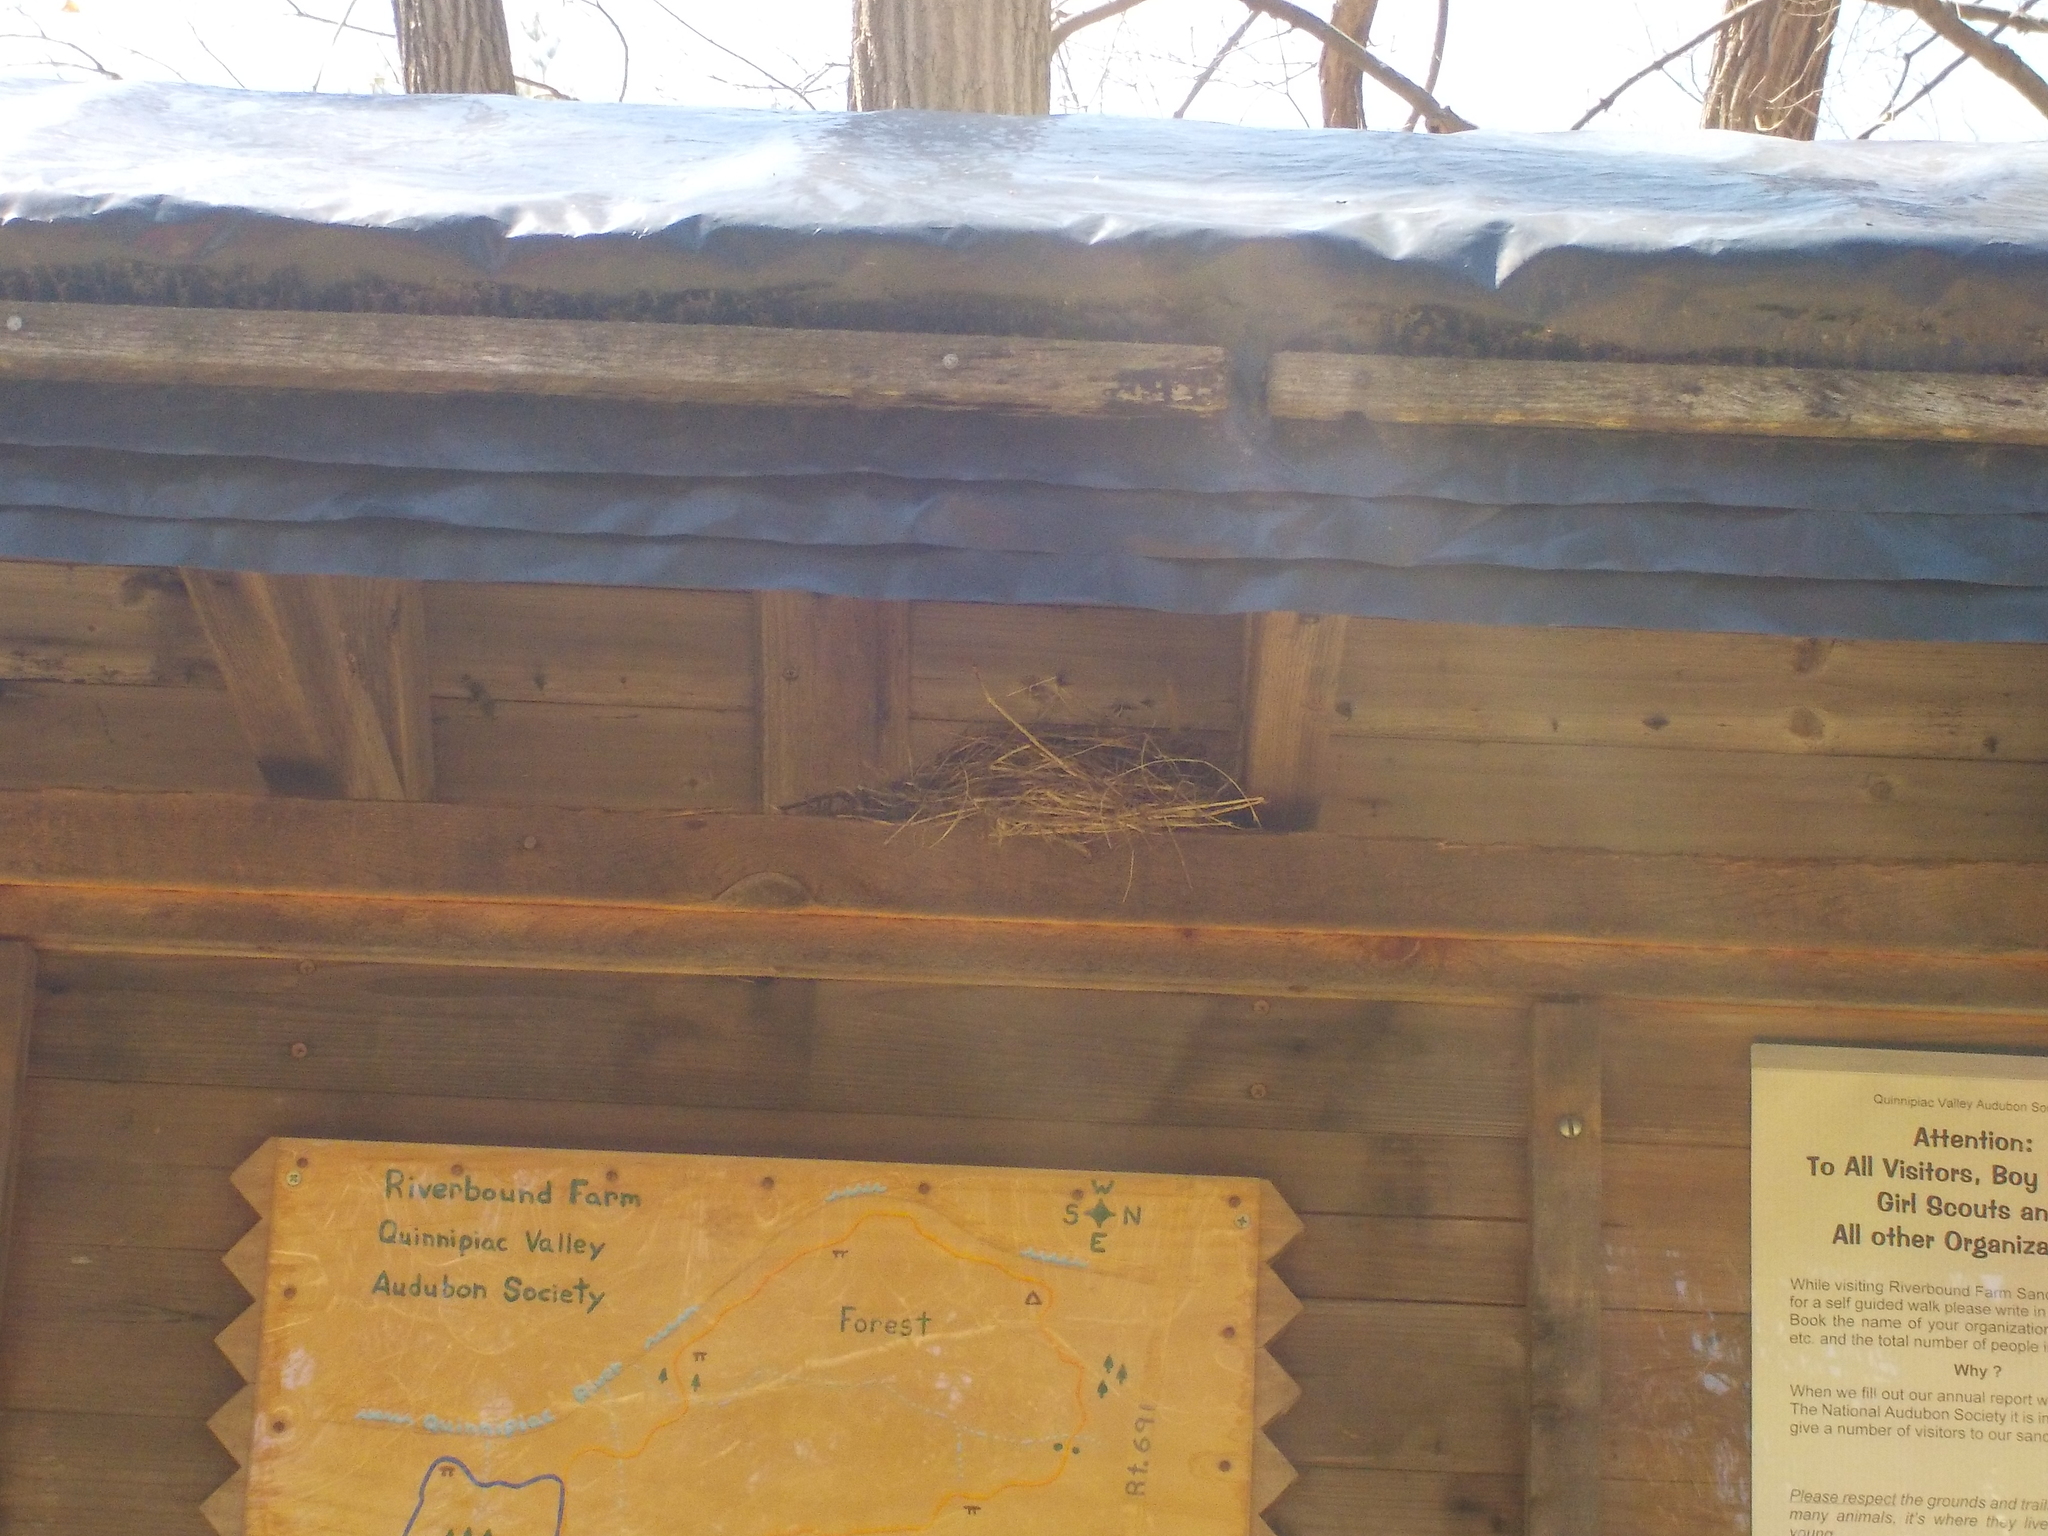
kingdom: Animalia
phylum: Chordata
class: Aves
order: Passeriformes
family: Turdidae
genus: Turdus
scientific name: Turdus migratorius
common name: American robin
